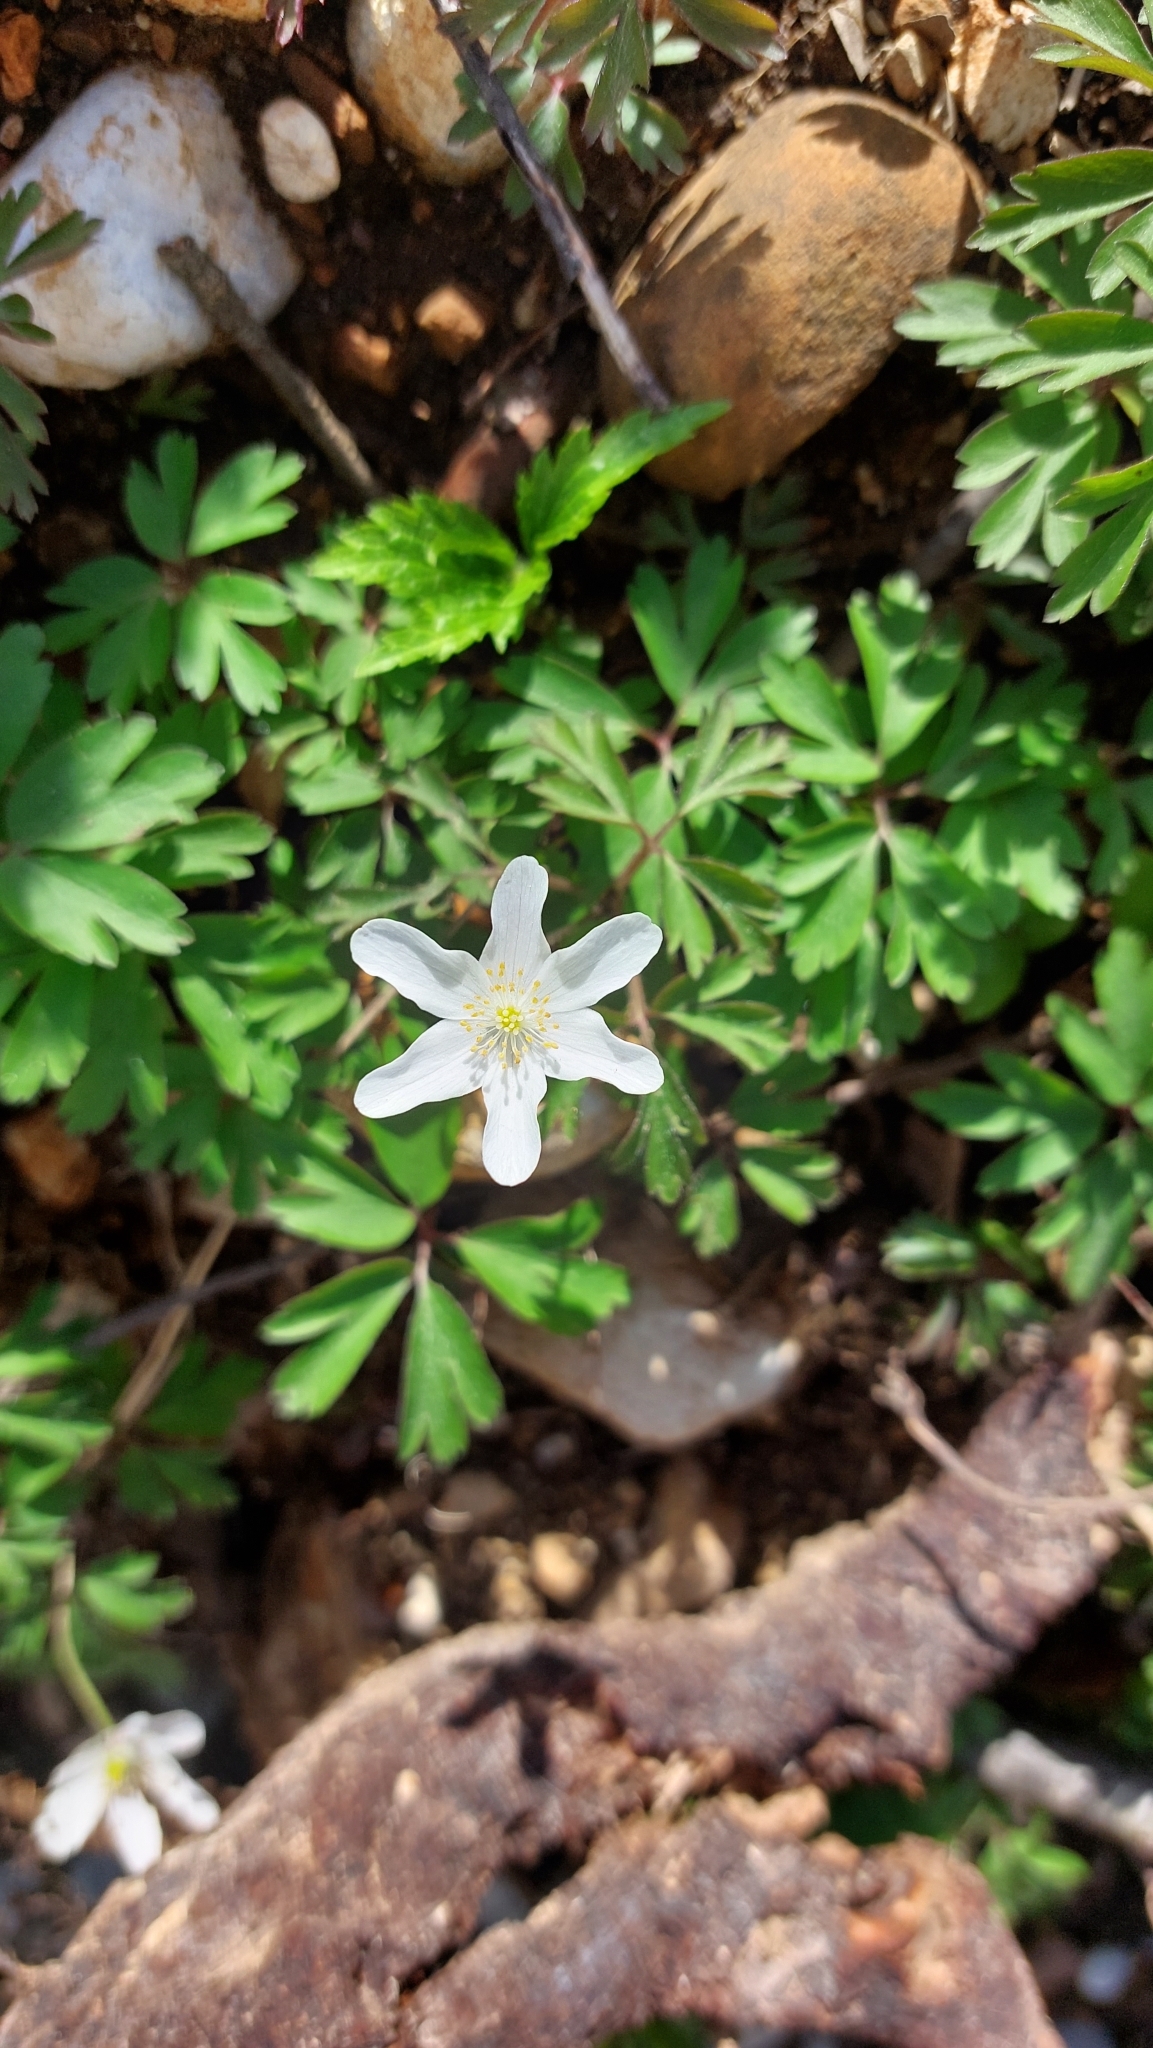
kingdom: Plantae
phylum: Tracheophyta
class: Magnoliopsida
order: Ranunculales
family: Ranunculaceae
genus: Anemone
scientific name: Anemone nemorosa
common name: Wood anemone
